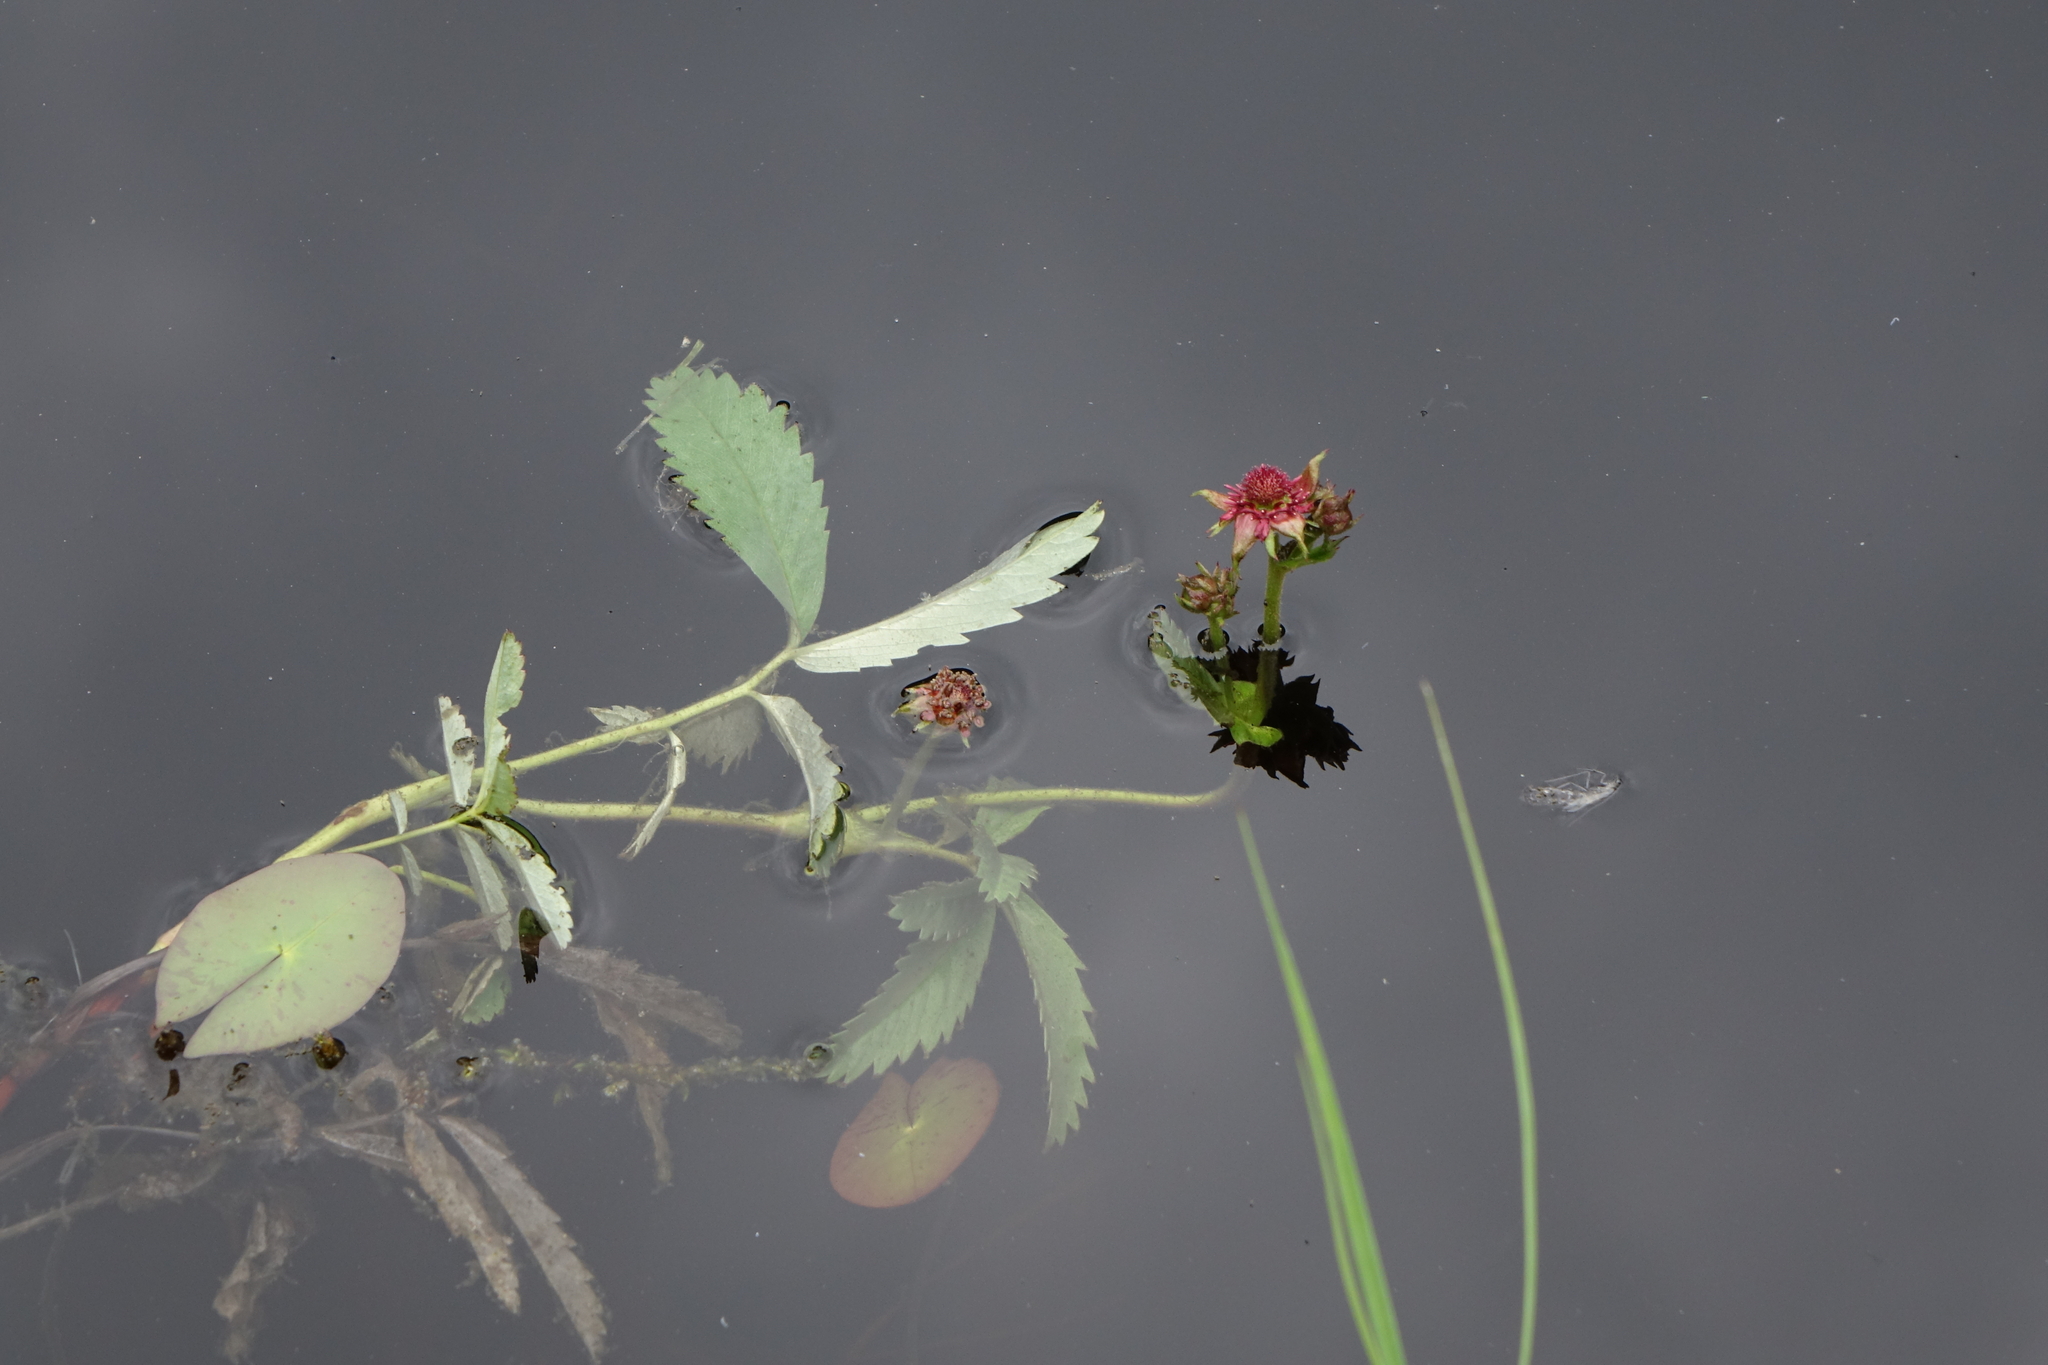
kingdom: Plantae
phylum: Tracheophyta
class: Magnoliopsida
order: Rosales
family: Rosaceae
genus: Comarum
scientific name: Comarum palustre
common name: Marsh cinquefoil
